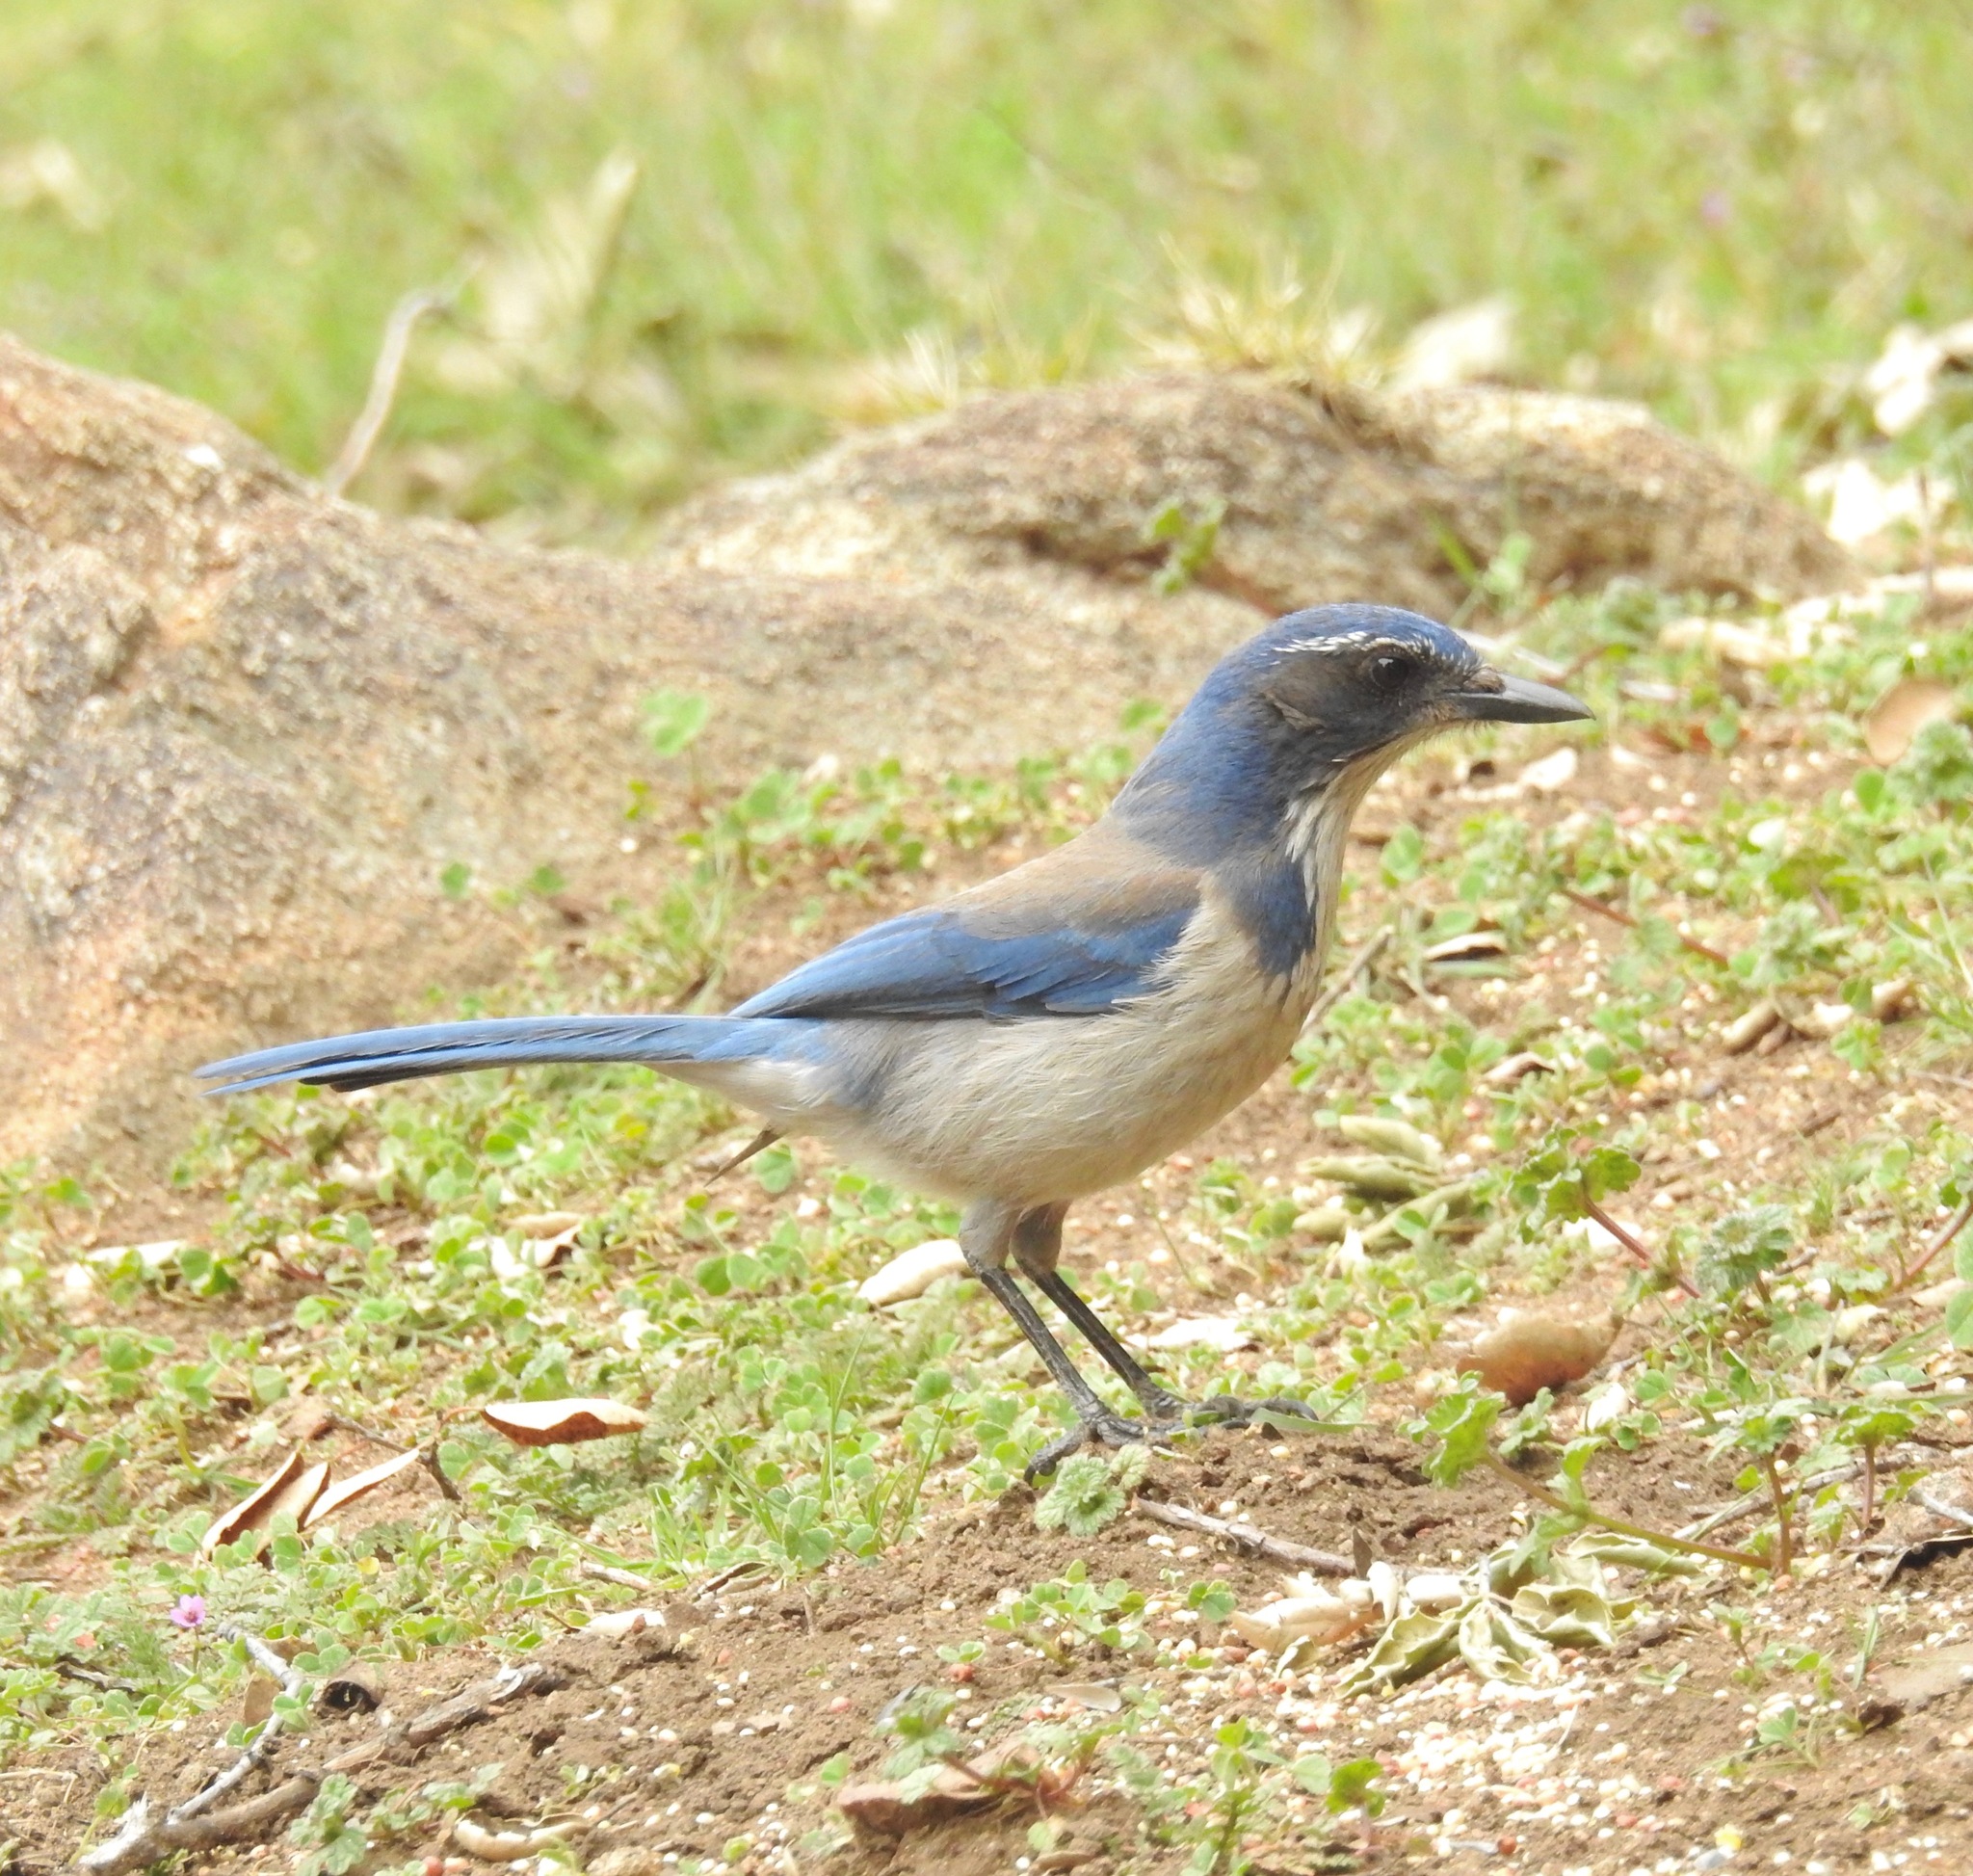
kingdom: Animalia
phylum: Chordata
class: Aves
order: Passeriformes
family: Corvidae
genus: Aphelocoma
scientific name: Aphelocoma californica
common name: California scrub-jay
